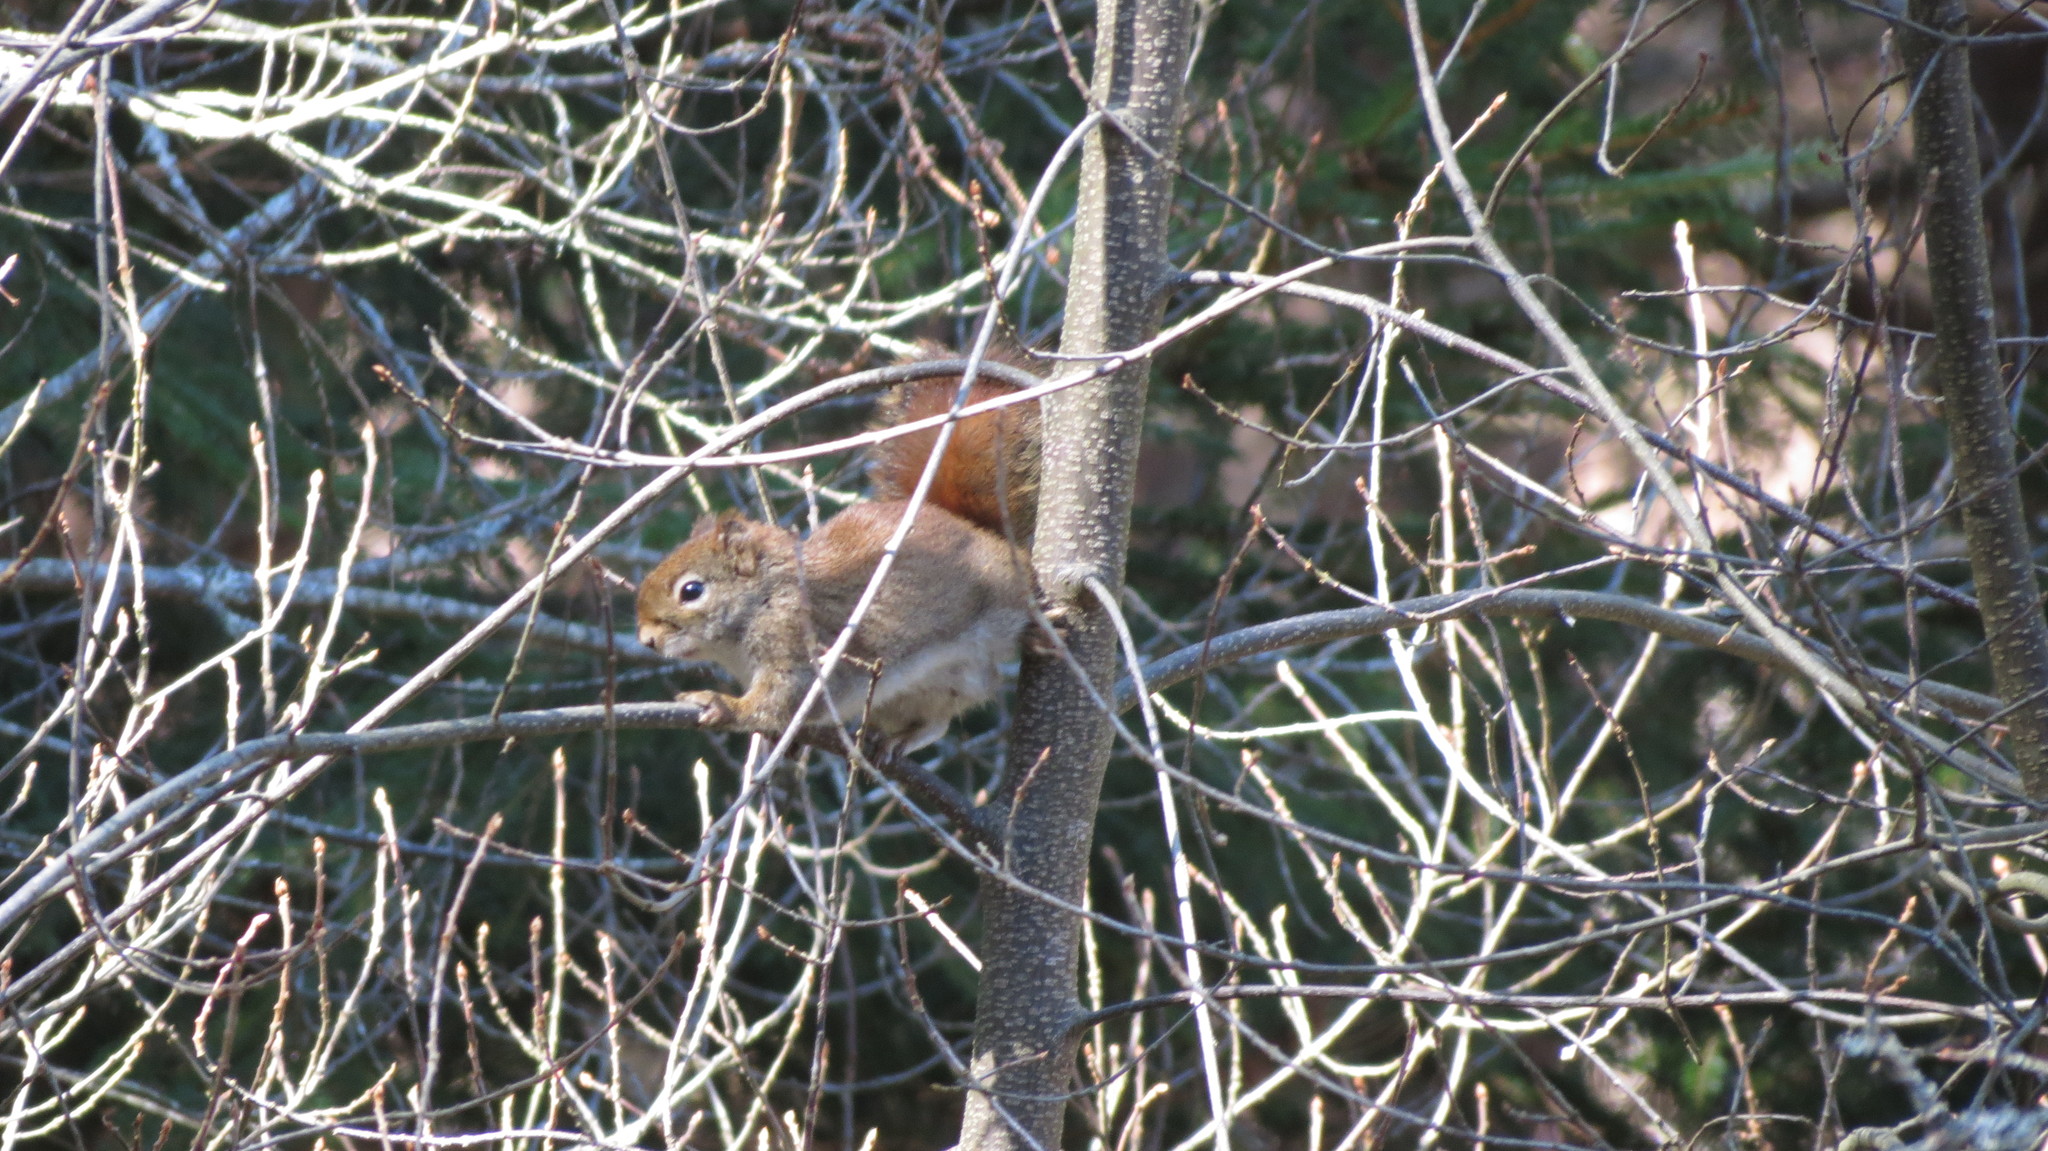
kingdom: Animalia
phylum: Chordata
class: Mammalia
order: Rodentia
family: Sciuridae
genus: Tamiasciurus
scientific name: Tamiasciurus hudsonicus
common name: Red squirrel
